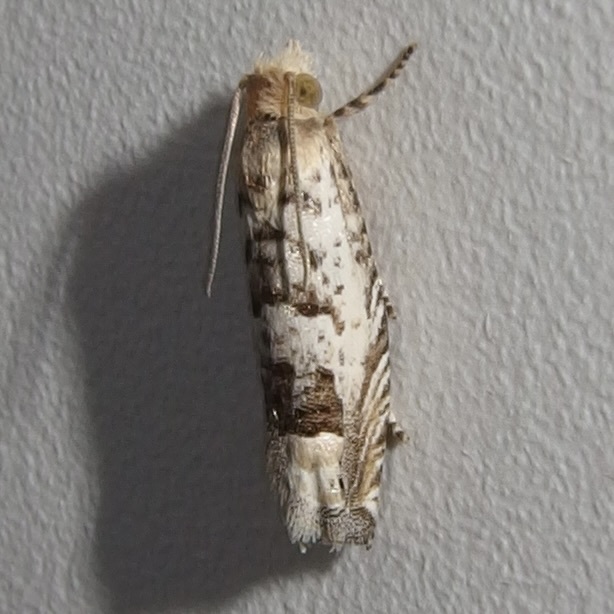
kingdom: Animalia
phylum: Arthropoda
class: Insecta
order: Lepidoptera
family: Tortricidae
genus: Eucosma
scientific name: Eucosma patagoniana
